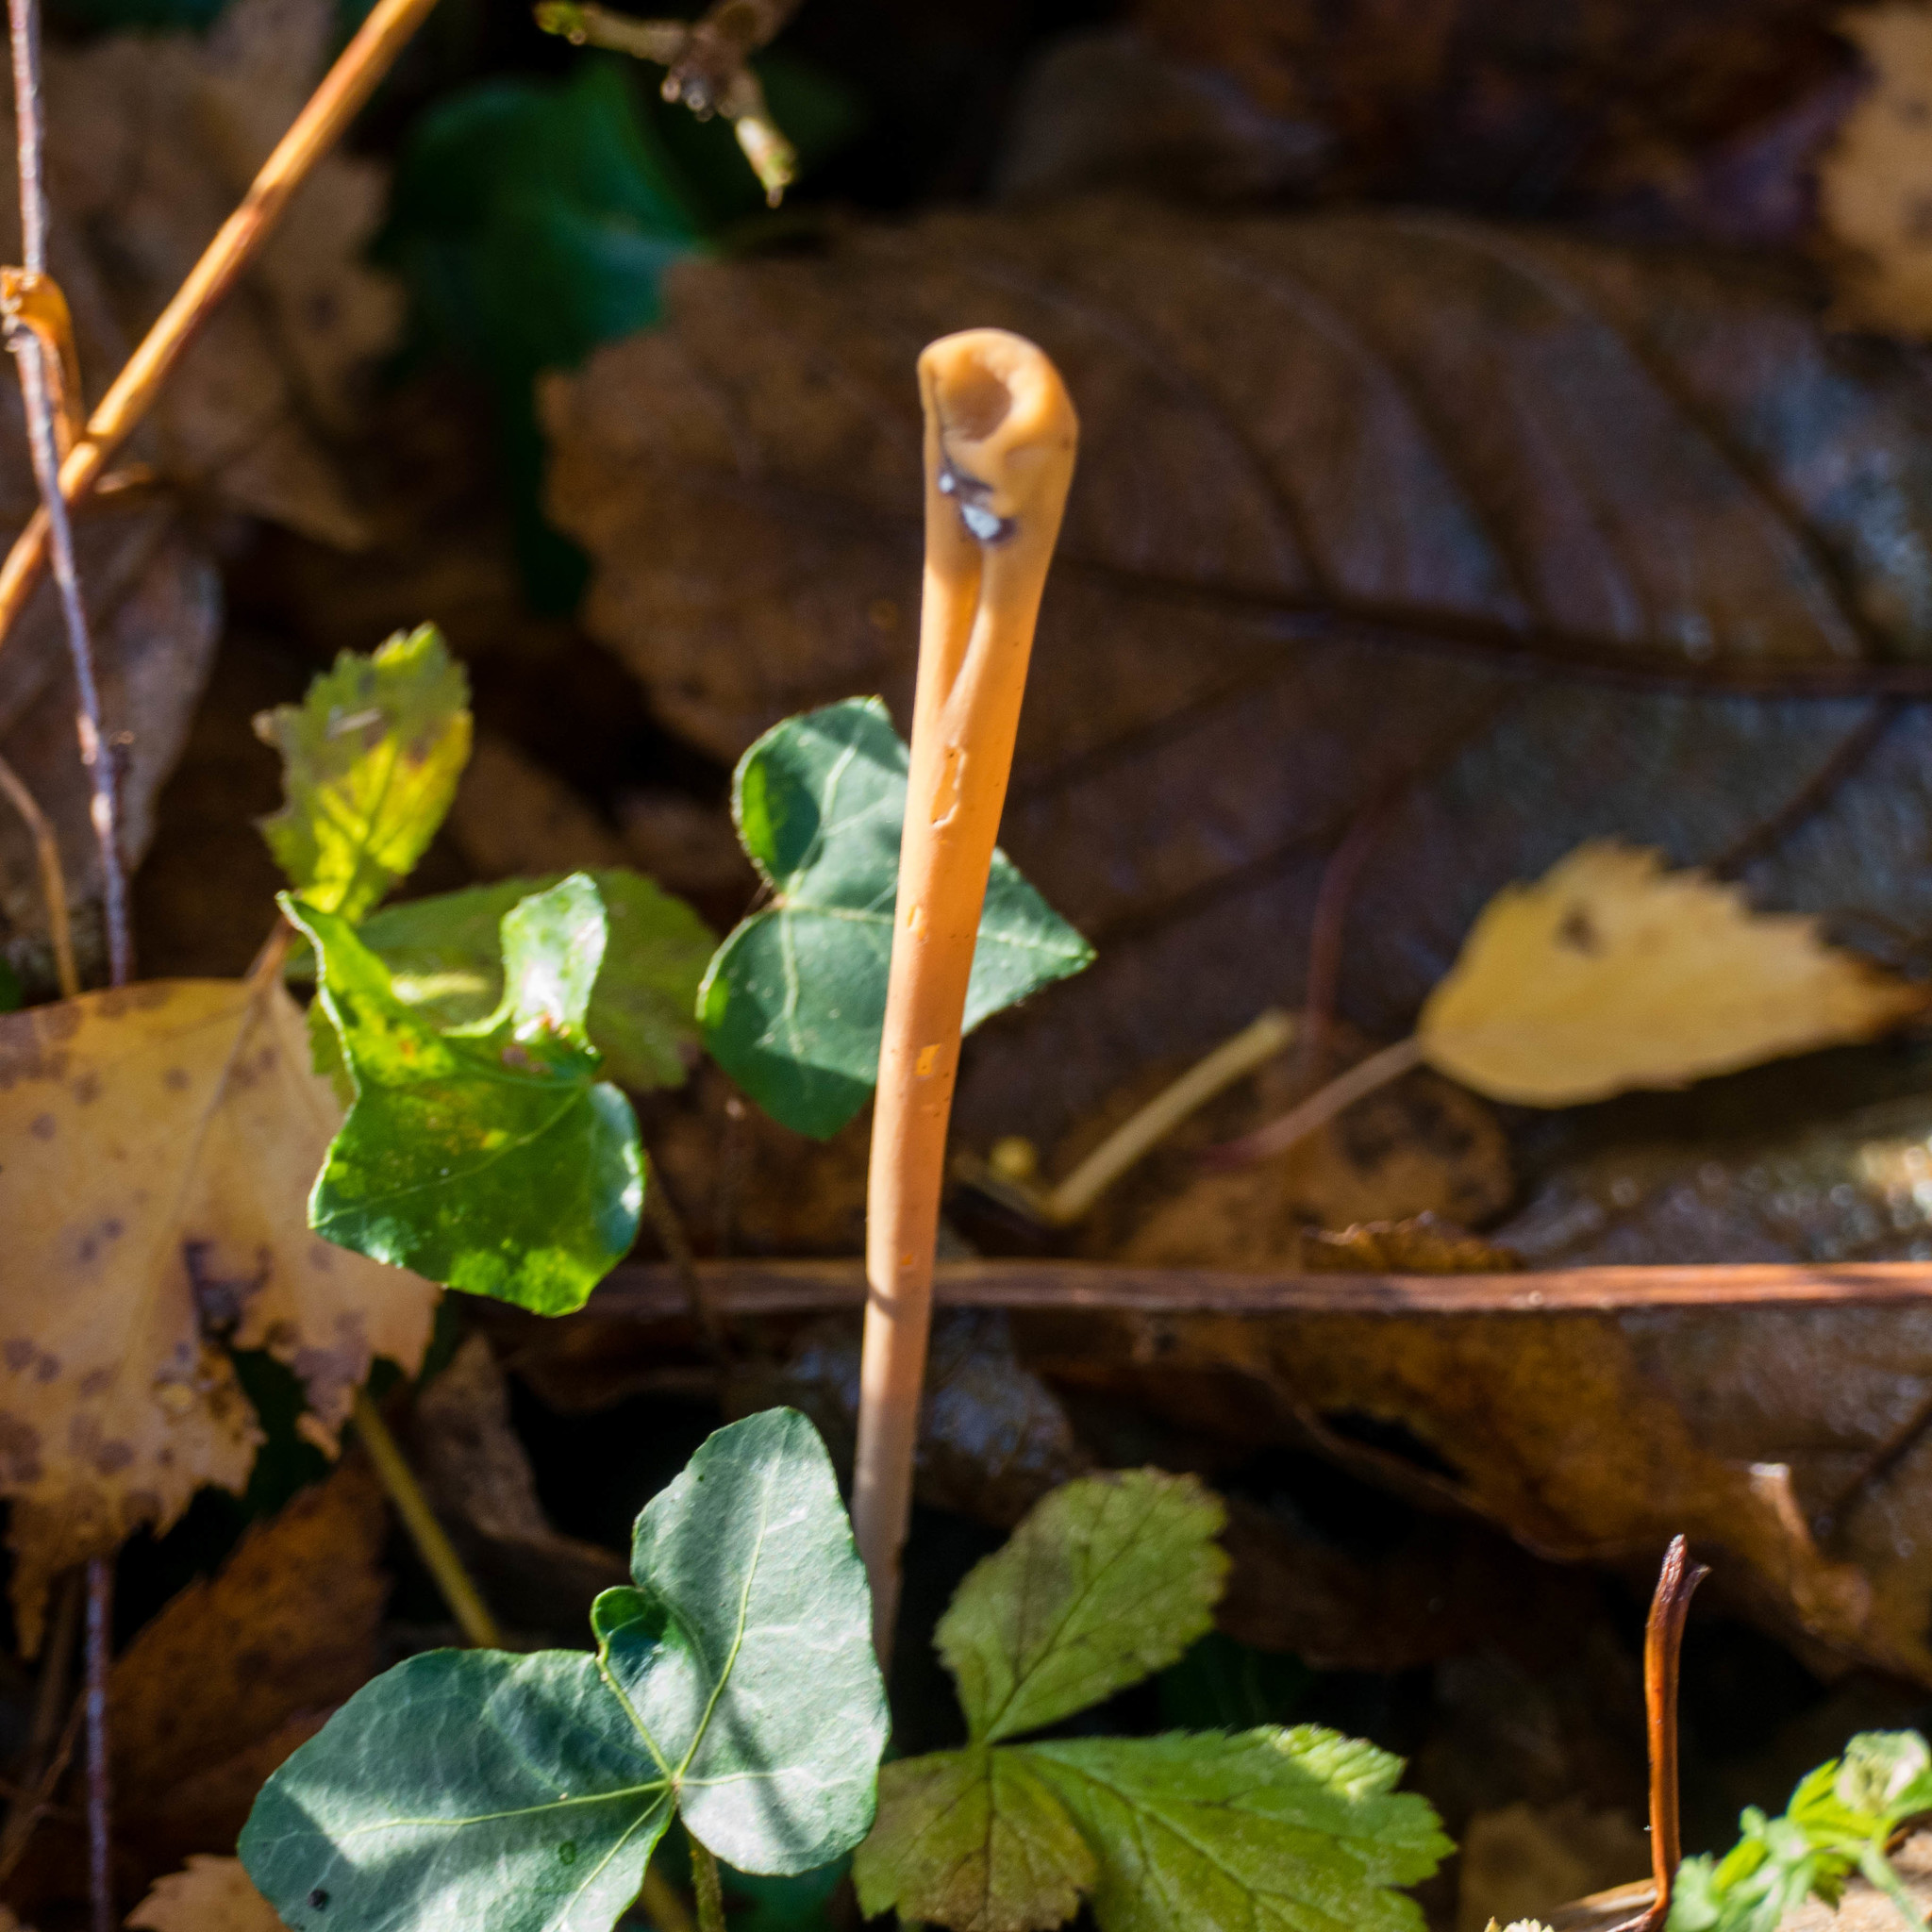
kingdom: Fungi
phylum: Basidiomycota
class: Agaricomycetes
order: Agaricales
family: Typhulaceae
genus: Typhula
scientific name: Typhula fistulosa
